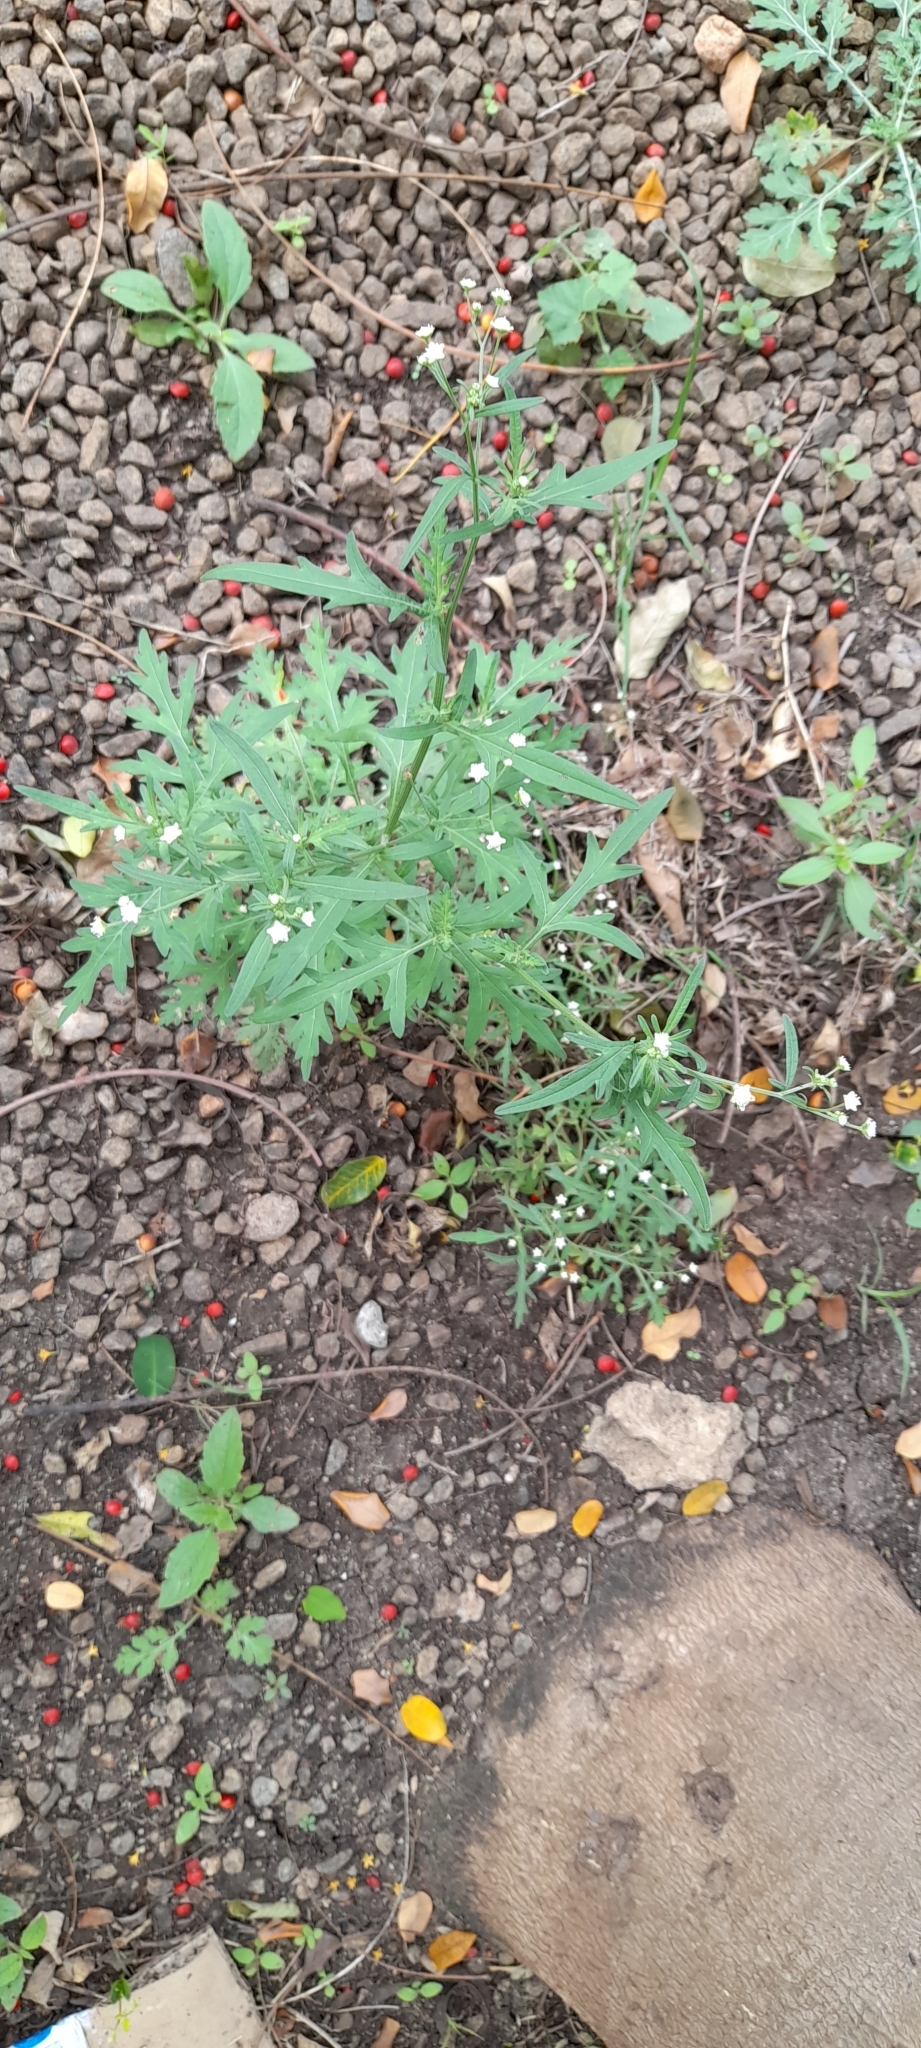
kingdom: Plantae
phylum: Tracheophyta
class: Magnoliopsida
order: Asterales
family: Asteraceae
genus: Parthenium
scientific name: Parthenium hysterophorus
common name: Santa maria feverfew
